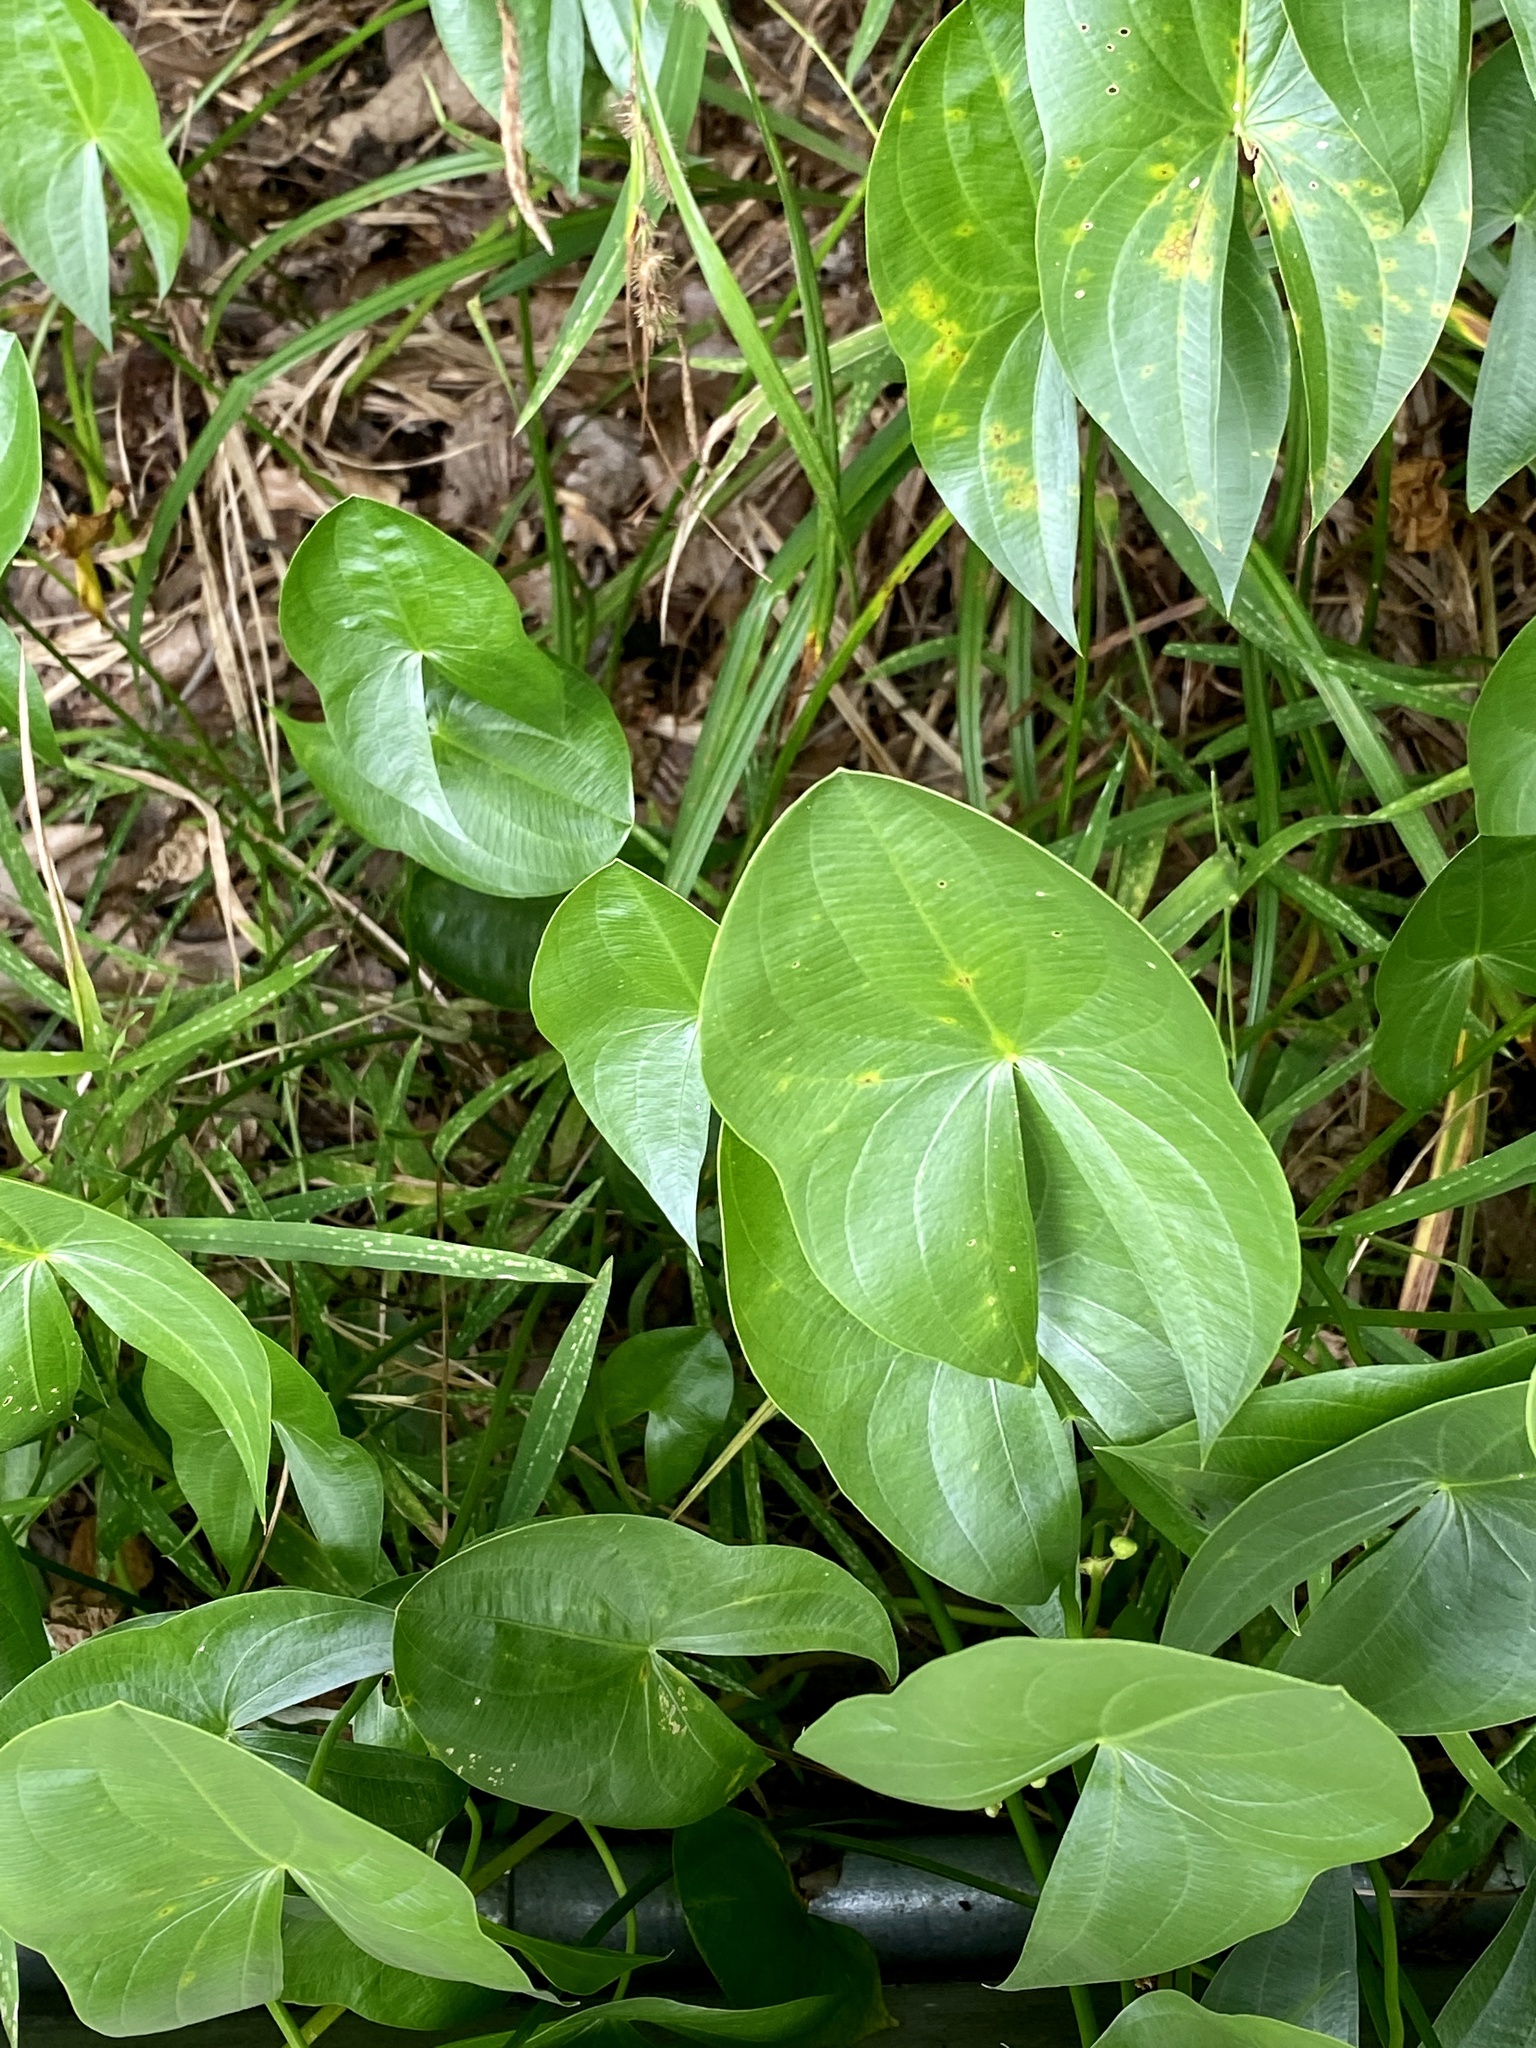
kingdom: Plantae
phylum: Tracheophyta
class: Liliopsida
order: Alismatales
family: Alismataceae
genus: Sagittaria
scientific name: Sagittaria latifolia
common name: Duck-potato
